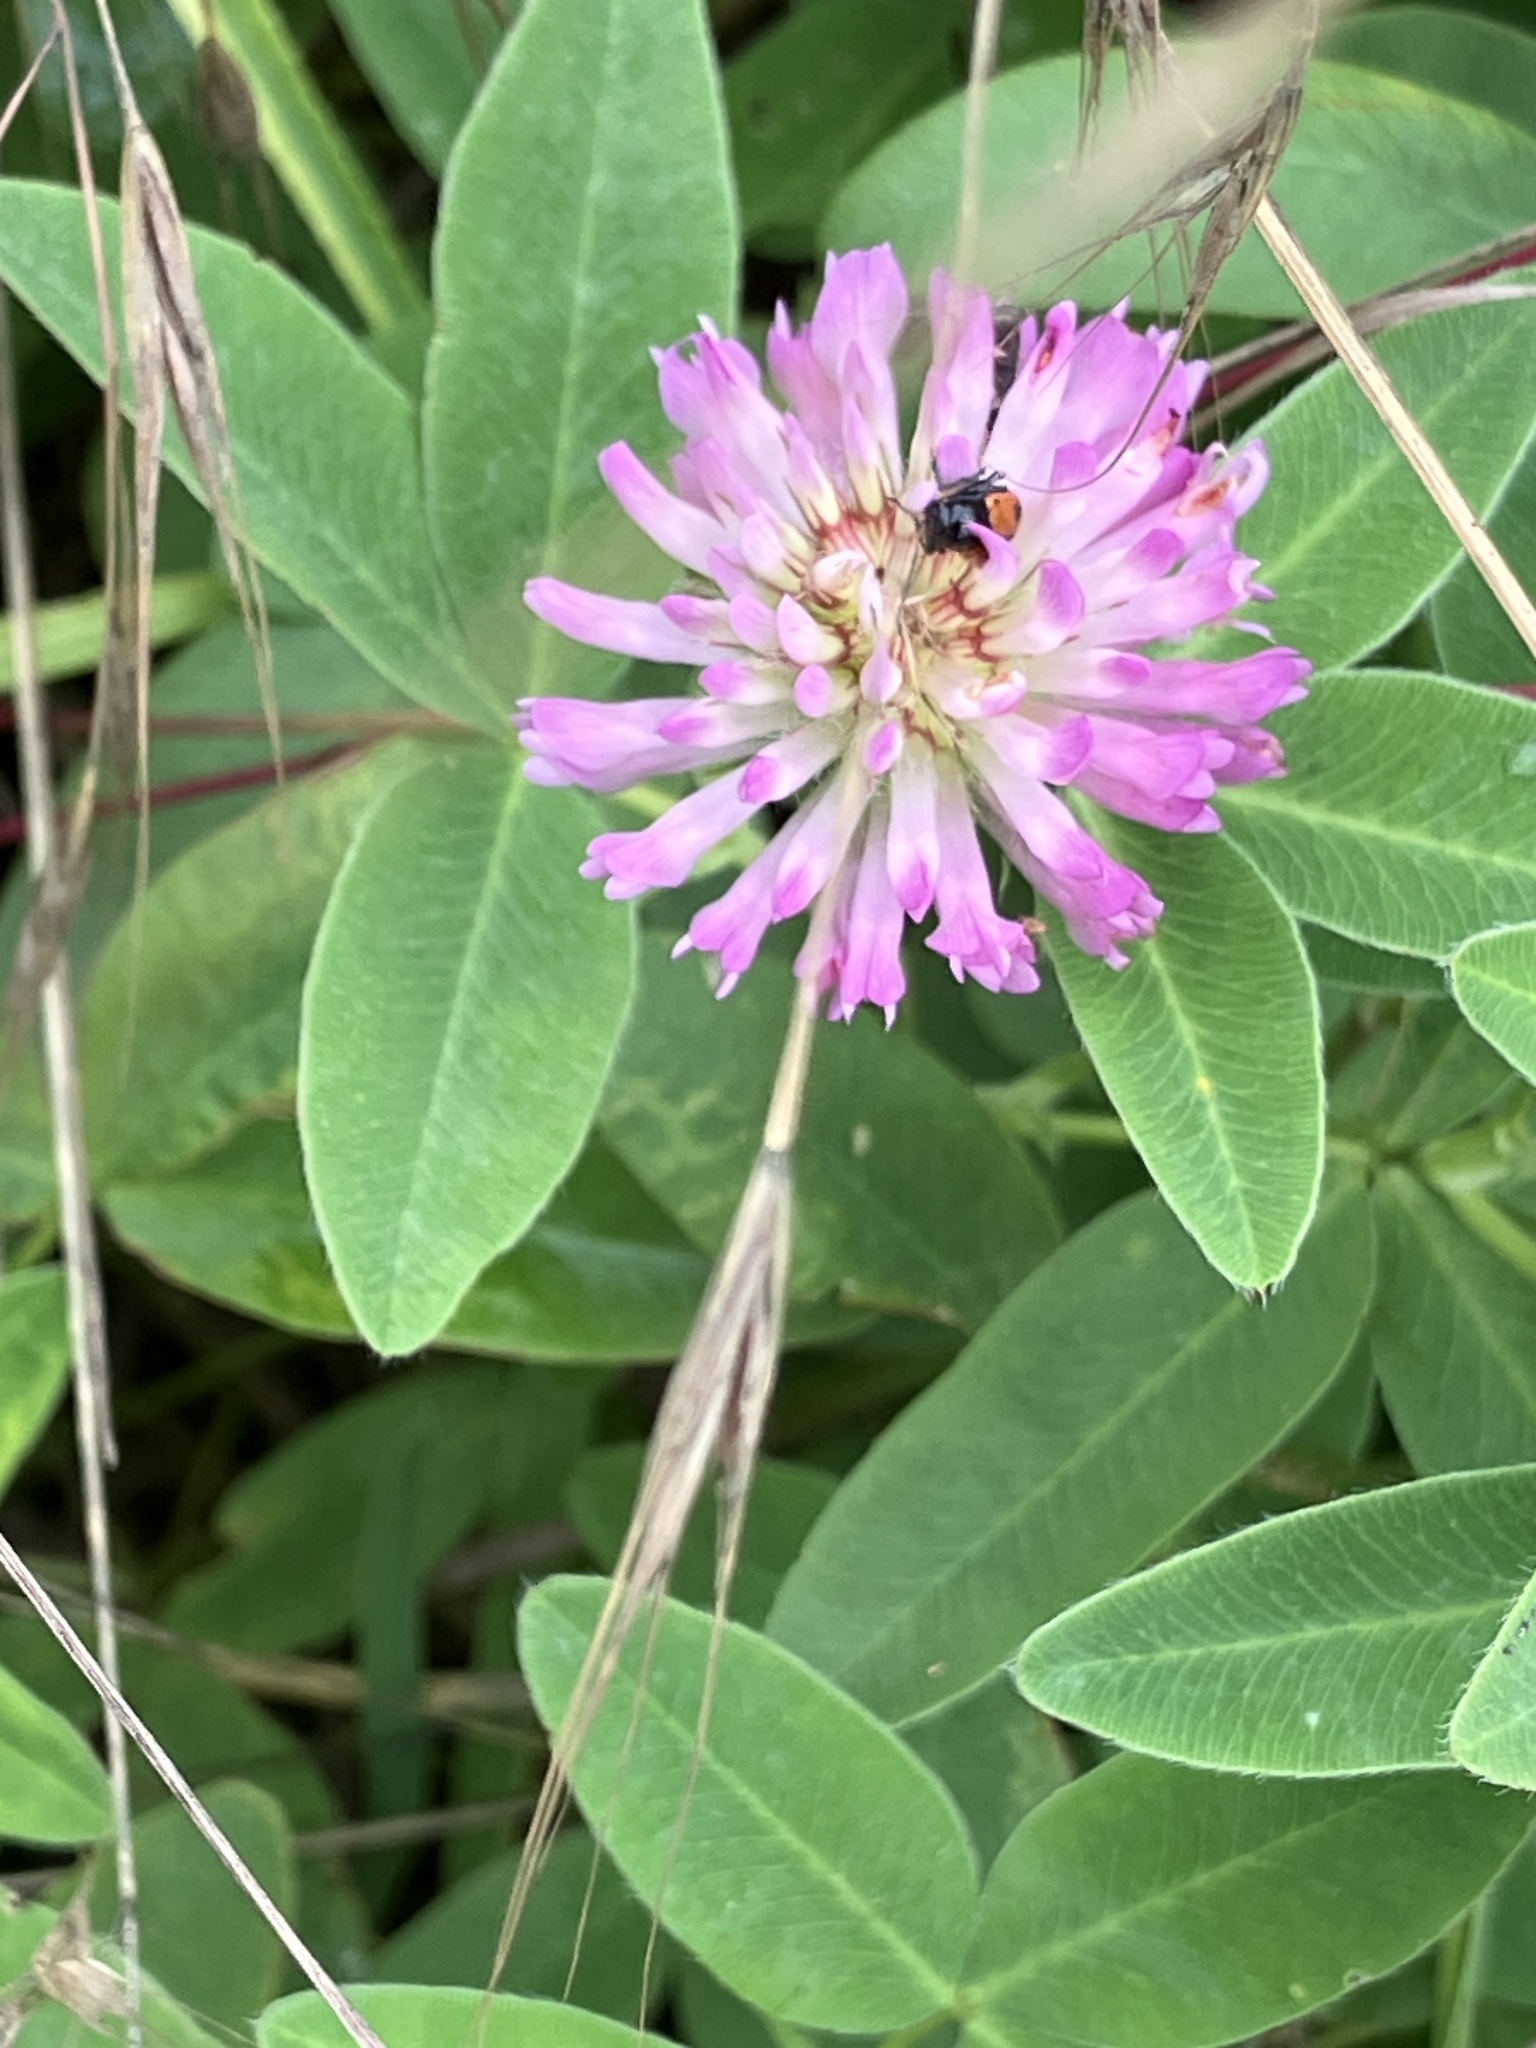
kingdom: Plantae
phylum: Tracheophyta
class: Magnoliopsida
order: Fabales
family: Fabaceae
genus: Trifolium
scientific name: Trifolium medium
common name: Zigzag clover
